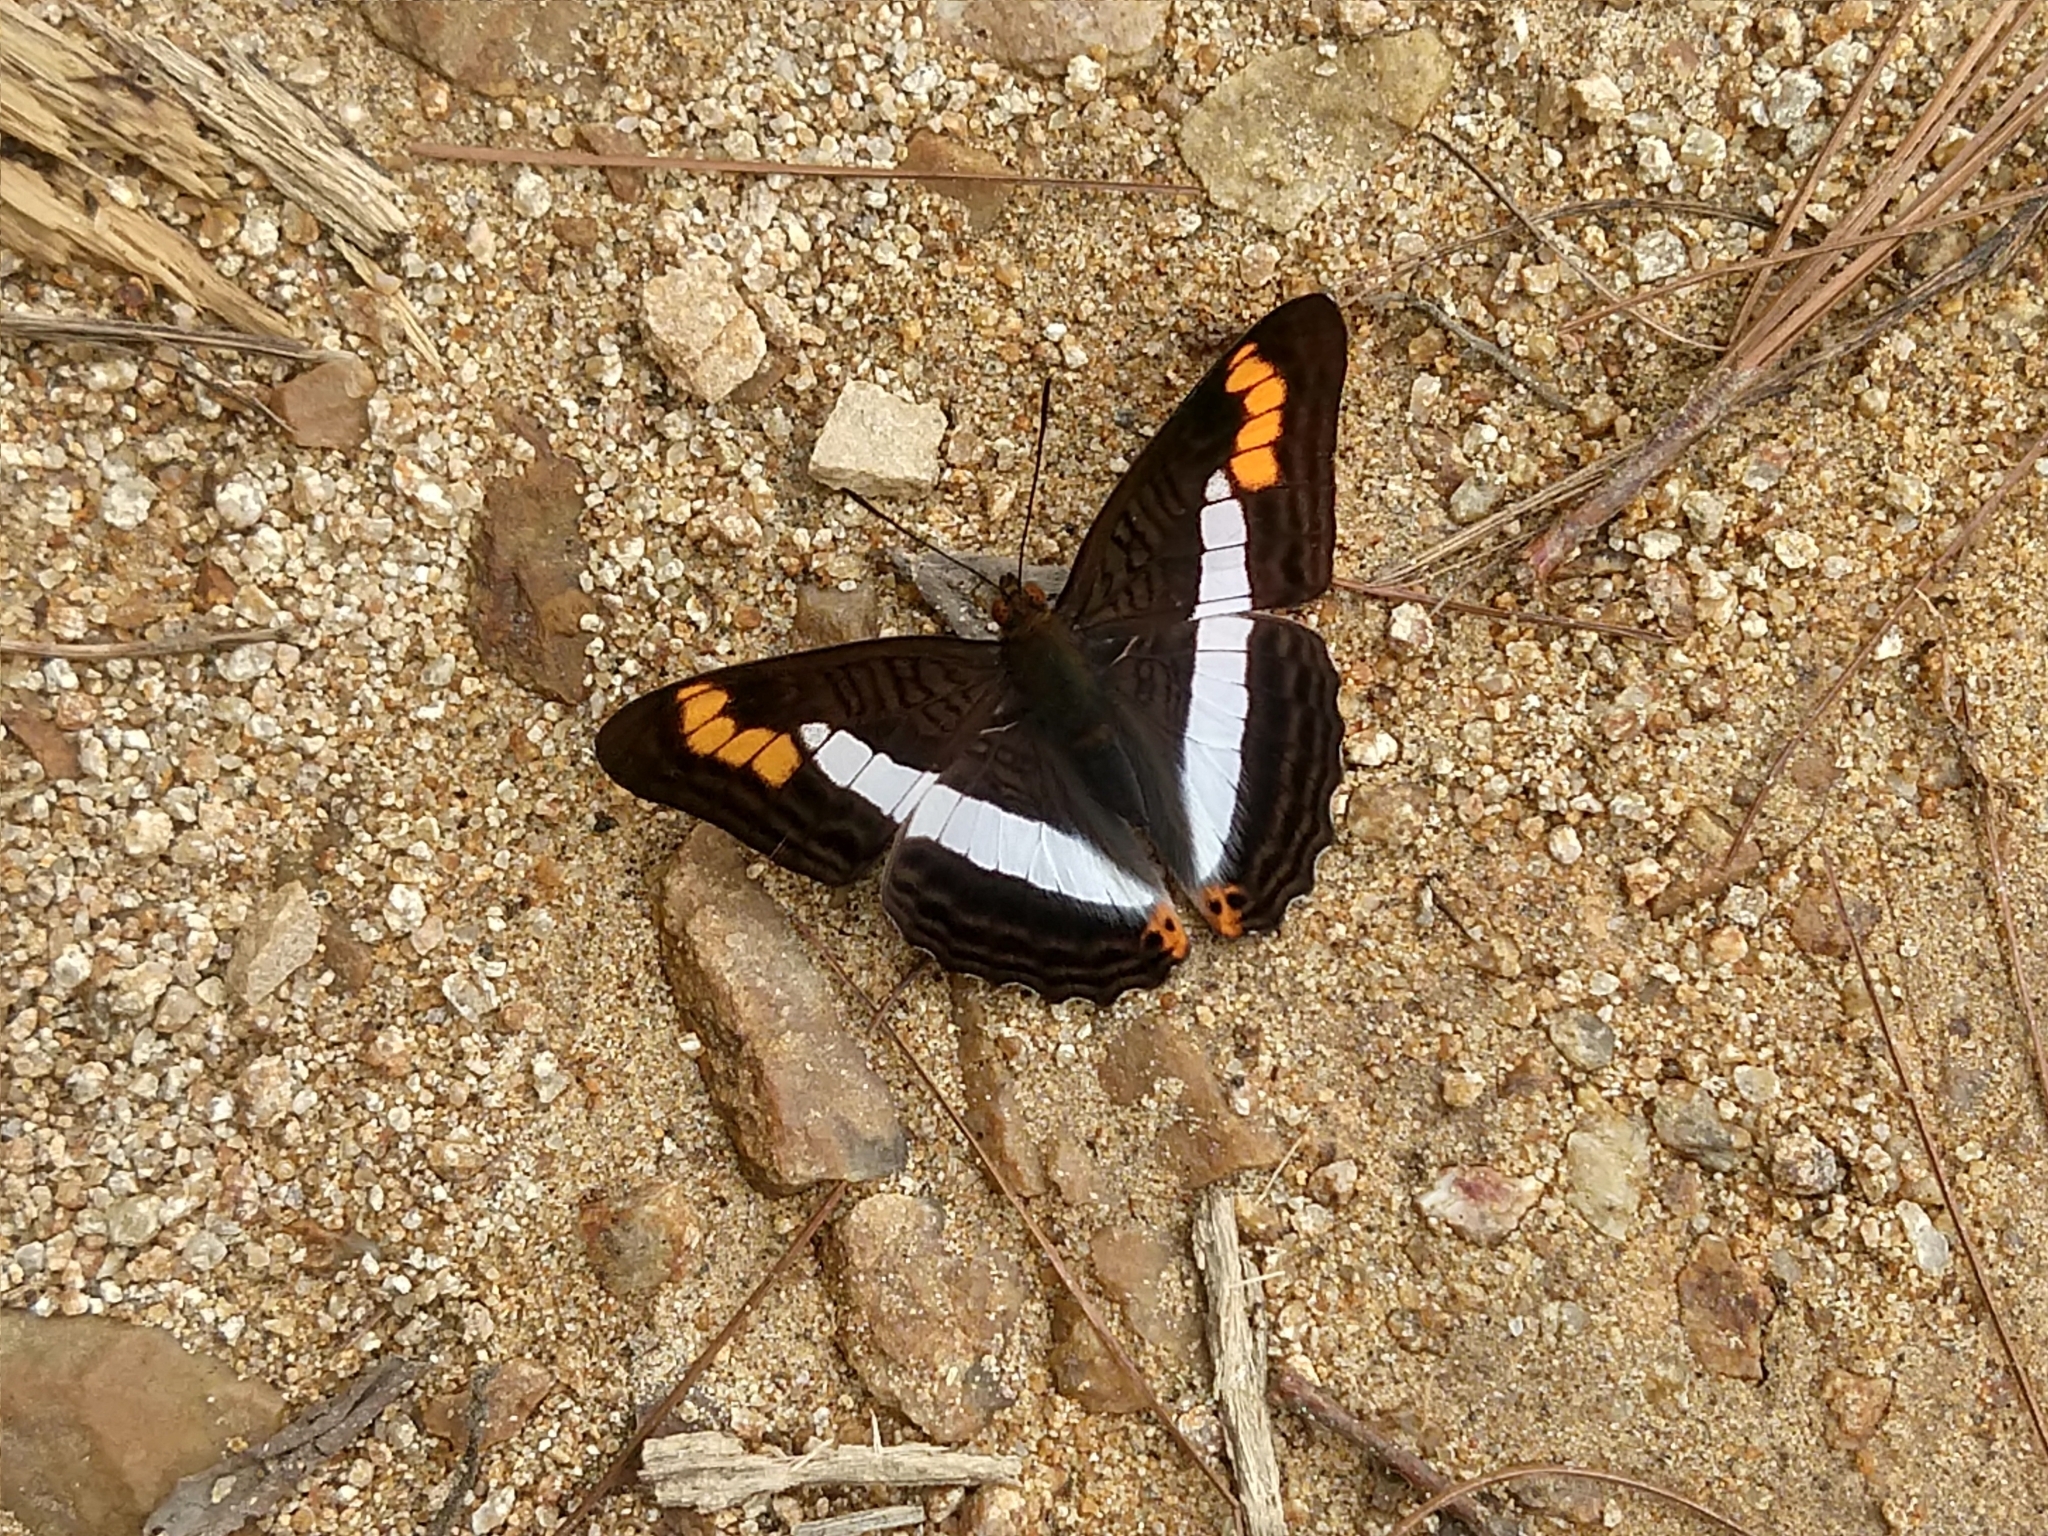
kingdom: Animalia
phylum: Arthropoda
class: Insecta
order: Lepidoptera
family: Nymphalidae
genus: Limenitis
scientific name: Limenitis pithys
